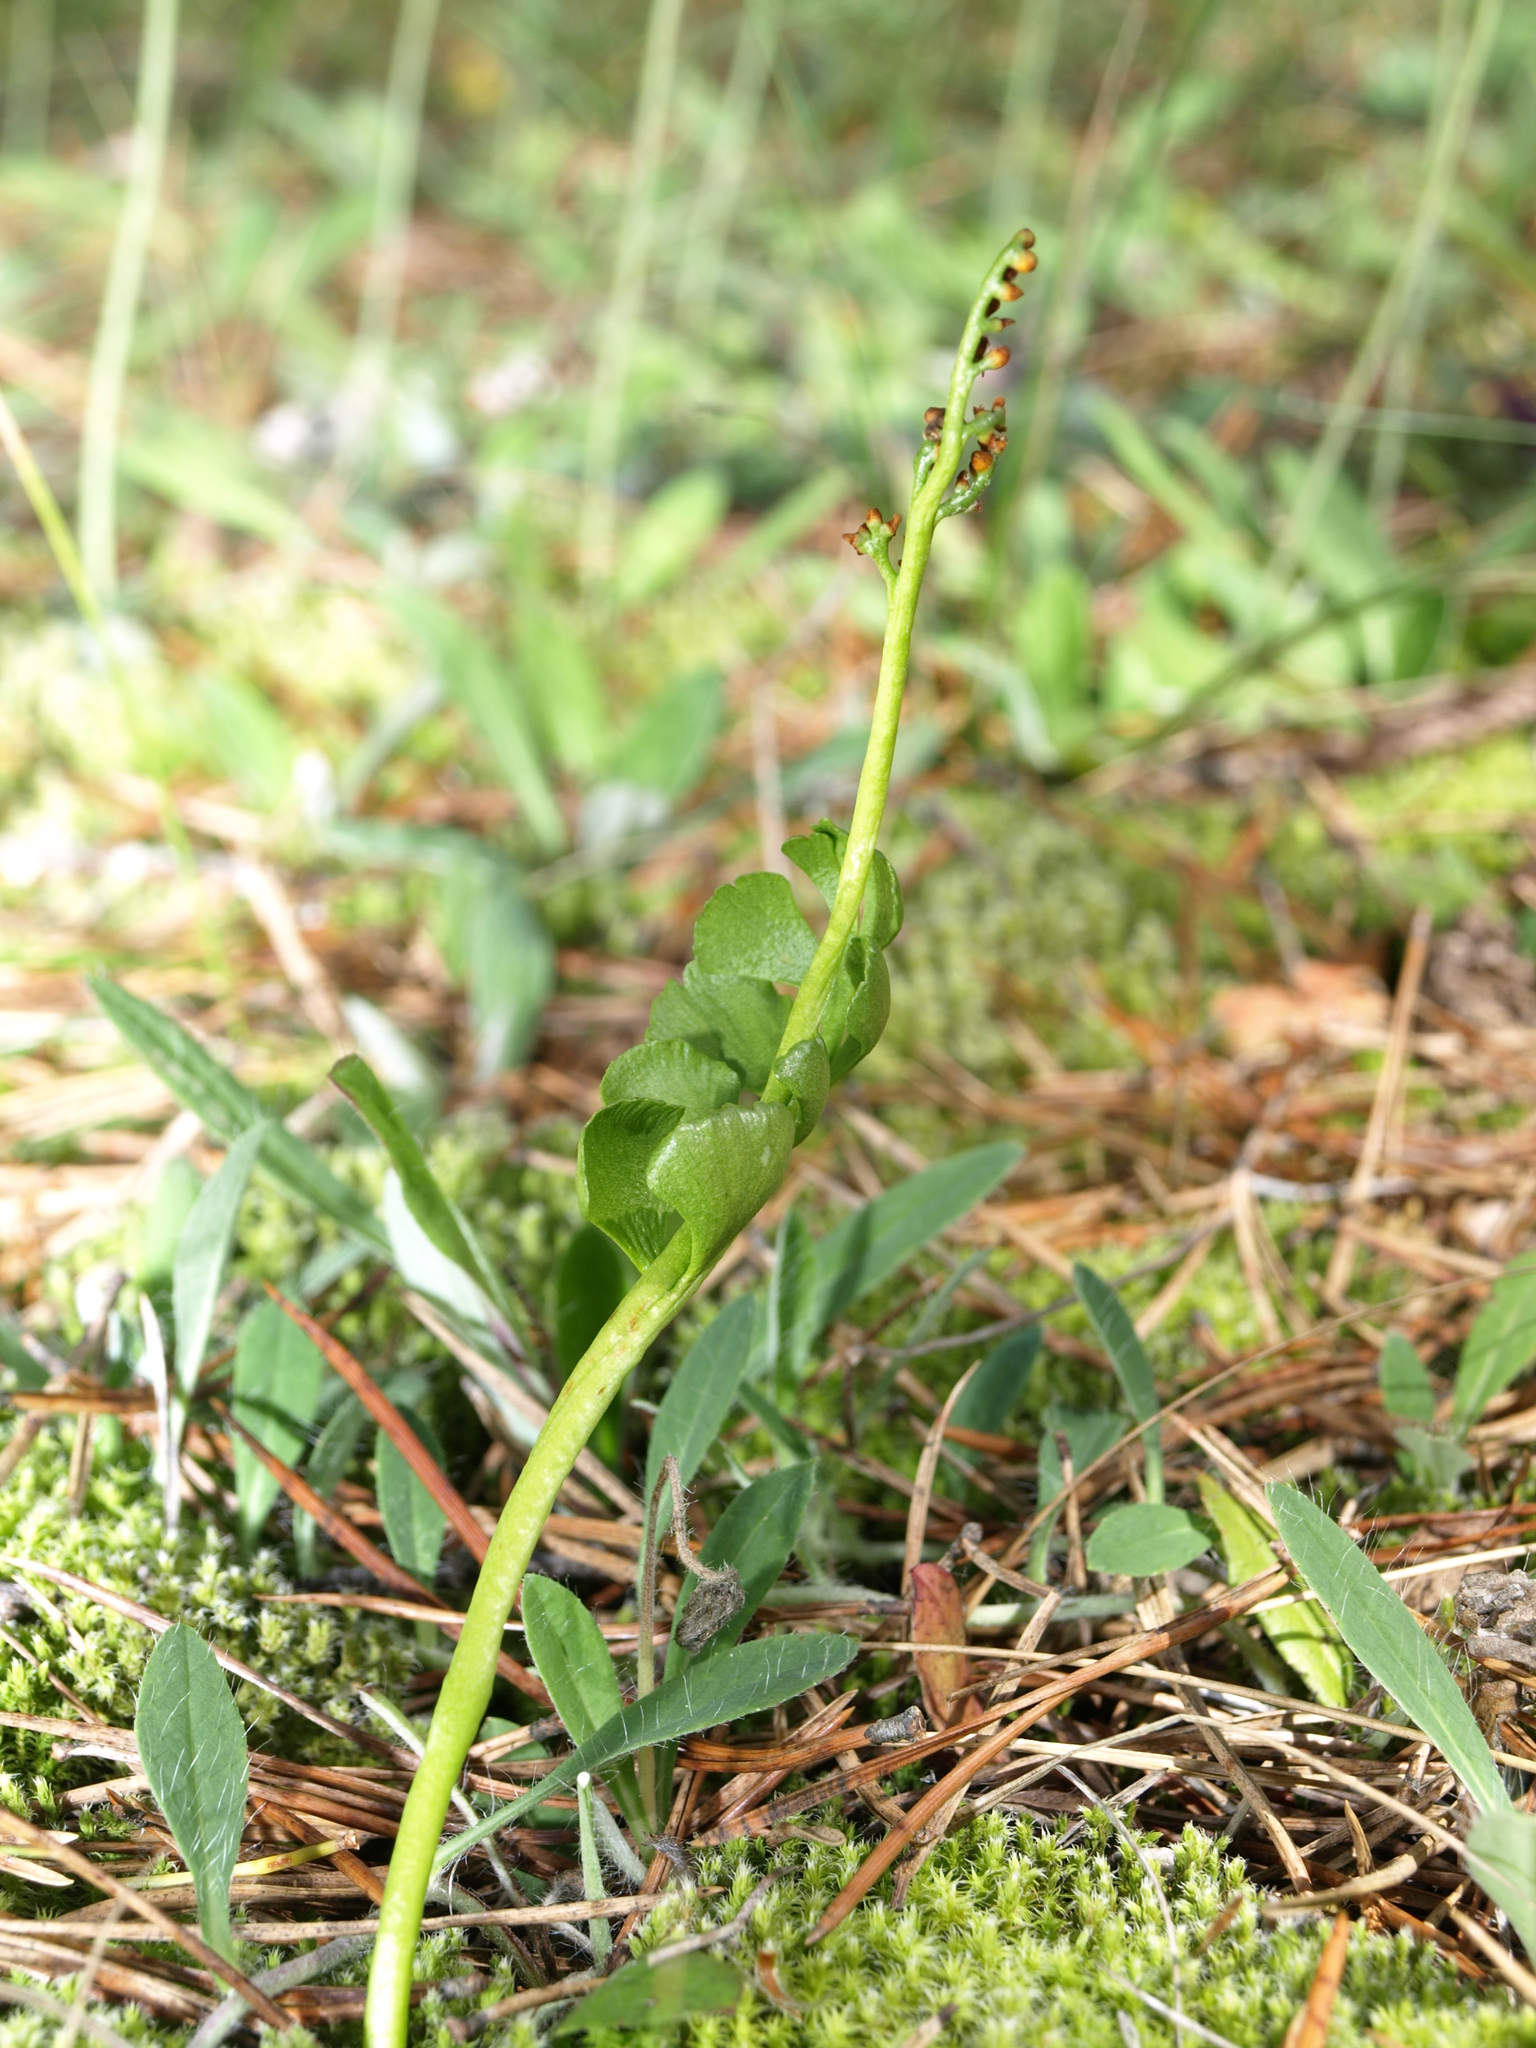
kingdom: Plantae
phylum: Tracheophyta
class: Polypodiopsida
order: Ophioglossales
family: Ophioglossaceae
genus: Botrychium
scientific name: Botrychium lunaria
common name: Moonwort
